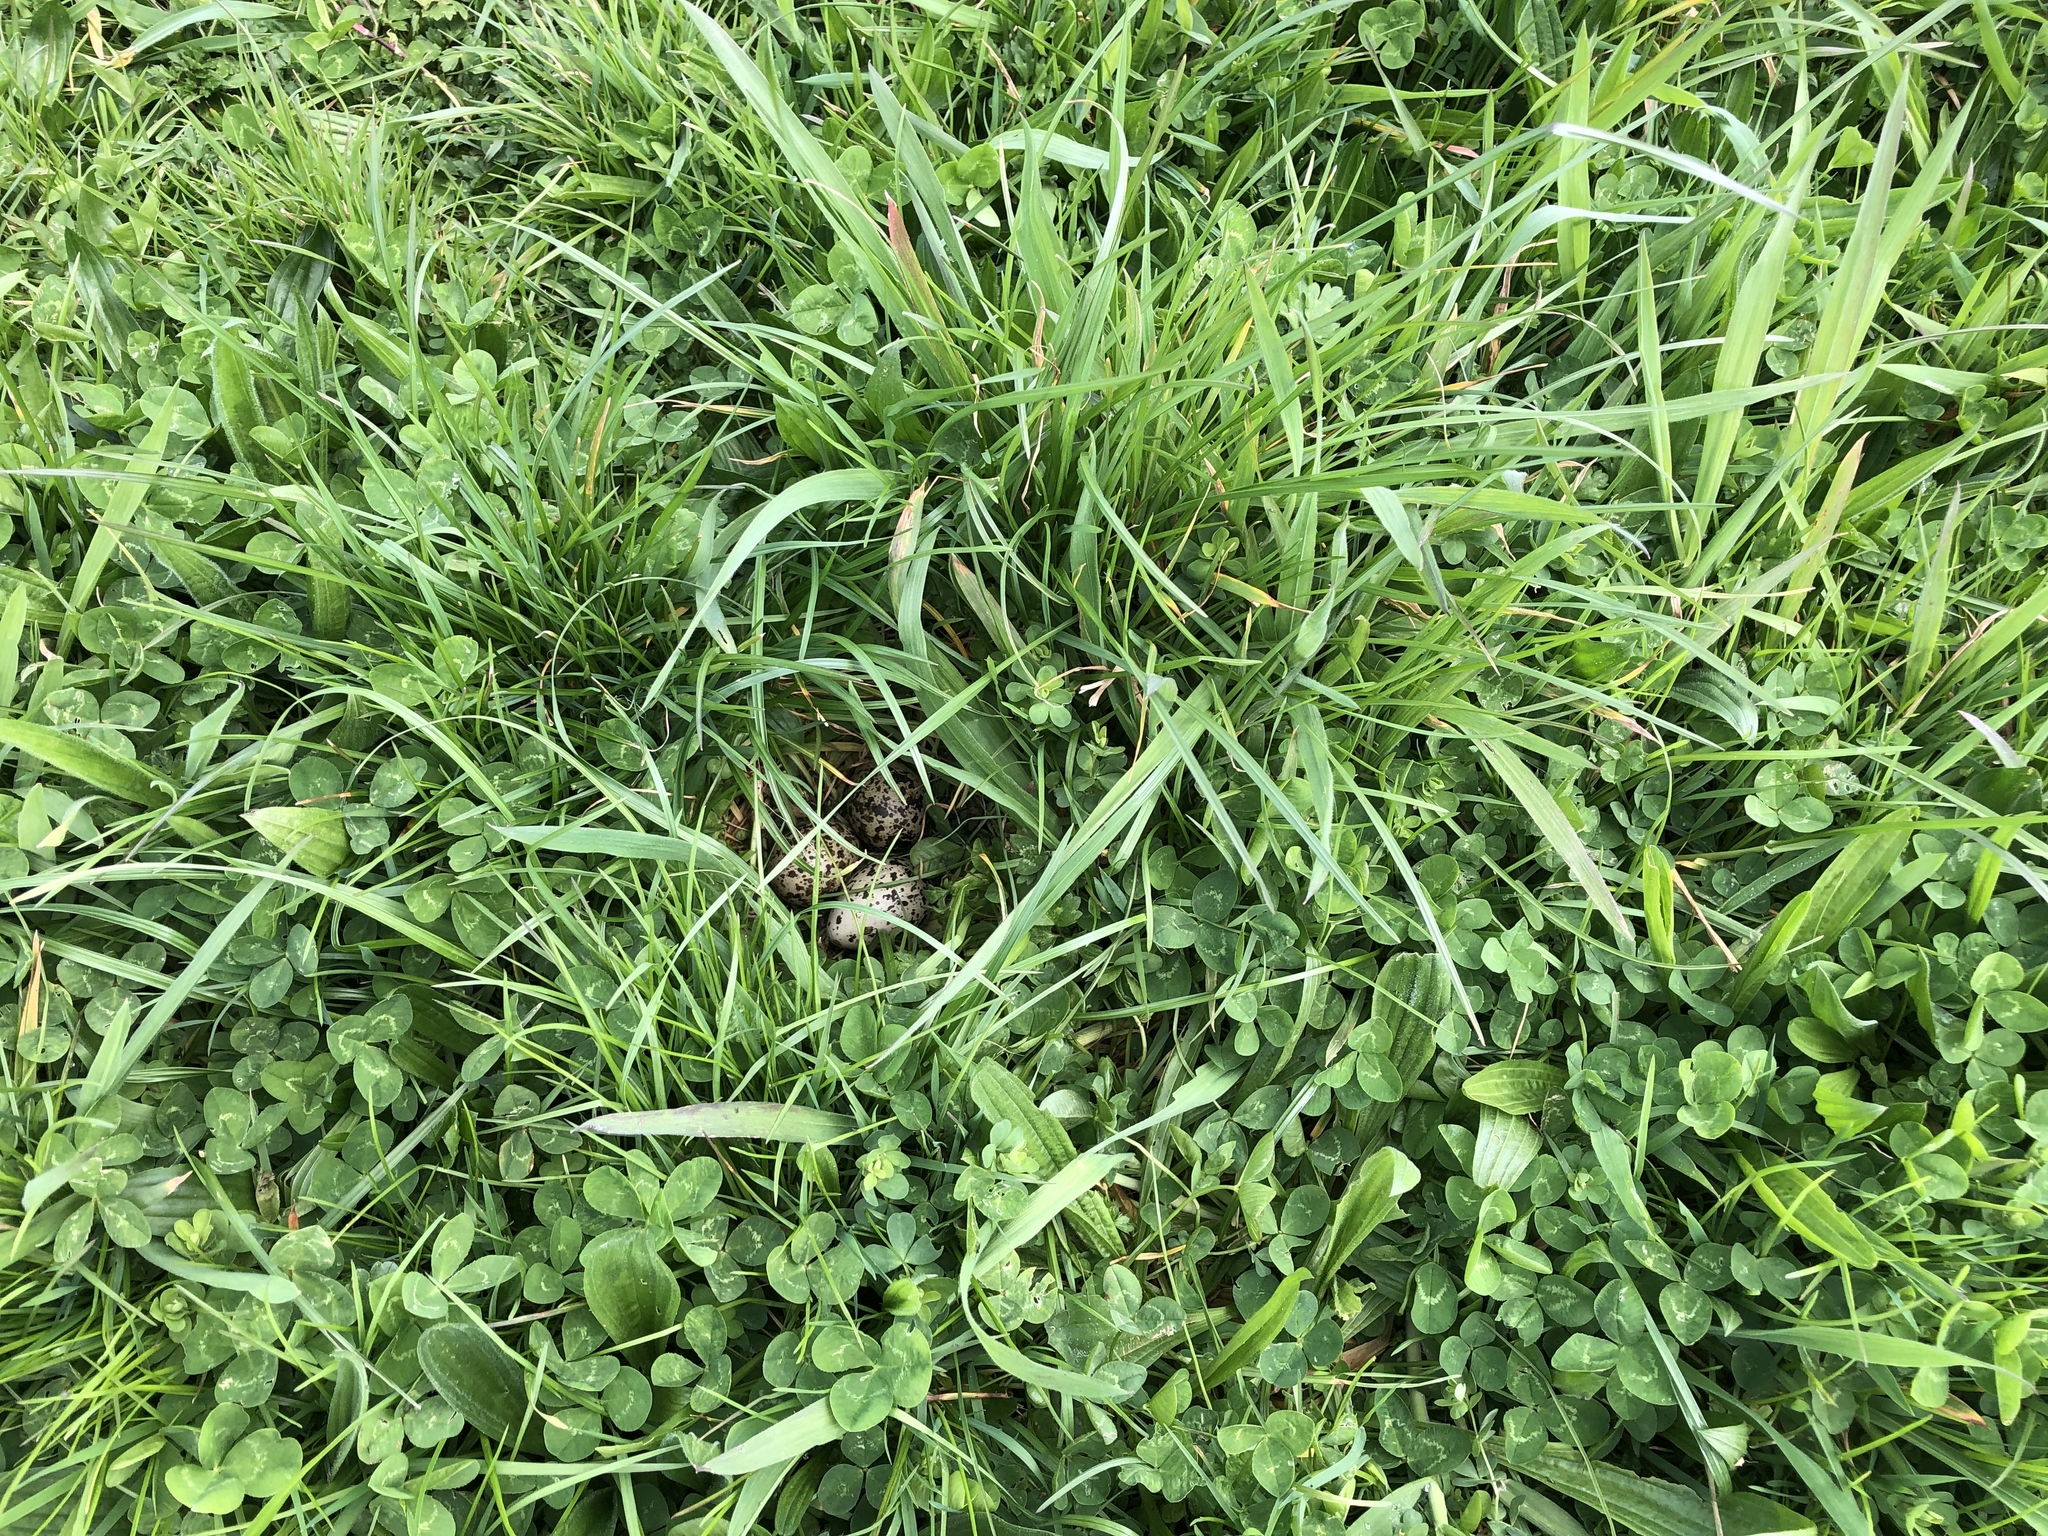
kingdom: Animalia
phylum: Chordata
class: Aves
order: Charadriiformes
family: Charadriidae
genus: Anarhynchus
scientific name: Anarhynchus
